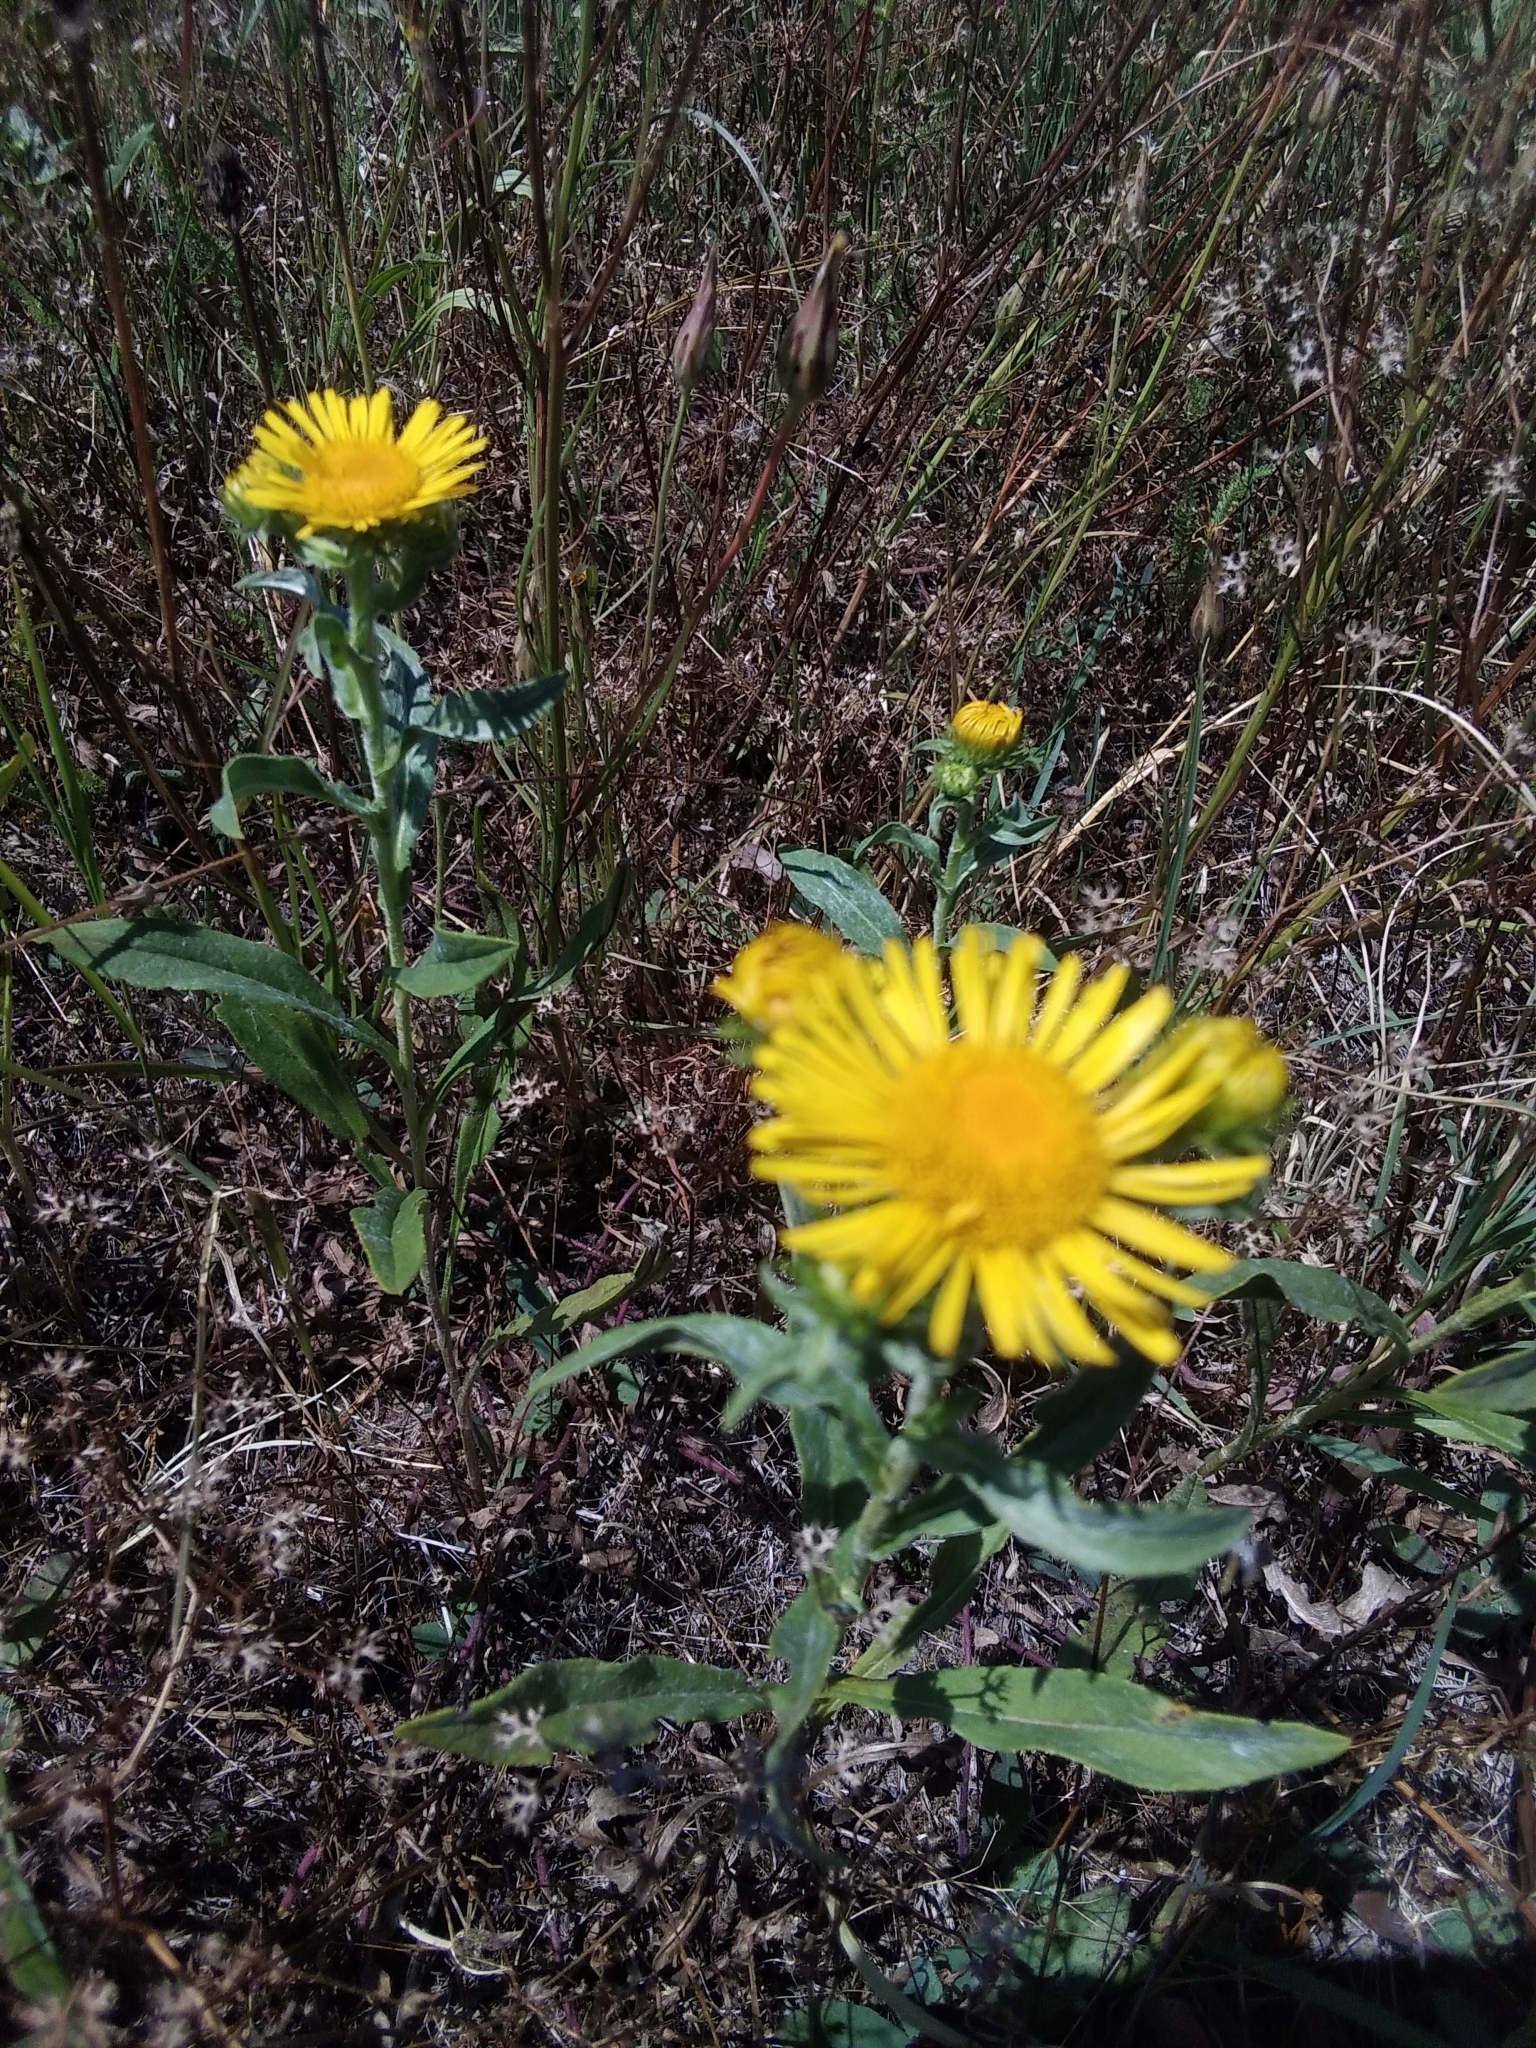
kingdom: Plantae
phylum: Tracheophyta
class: Magnoliopsida
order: Asterales
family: Asteraceae
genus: Pentanema
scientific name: Pentanema britannicum
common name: British elecampane
